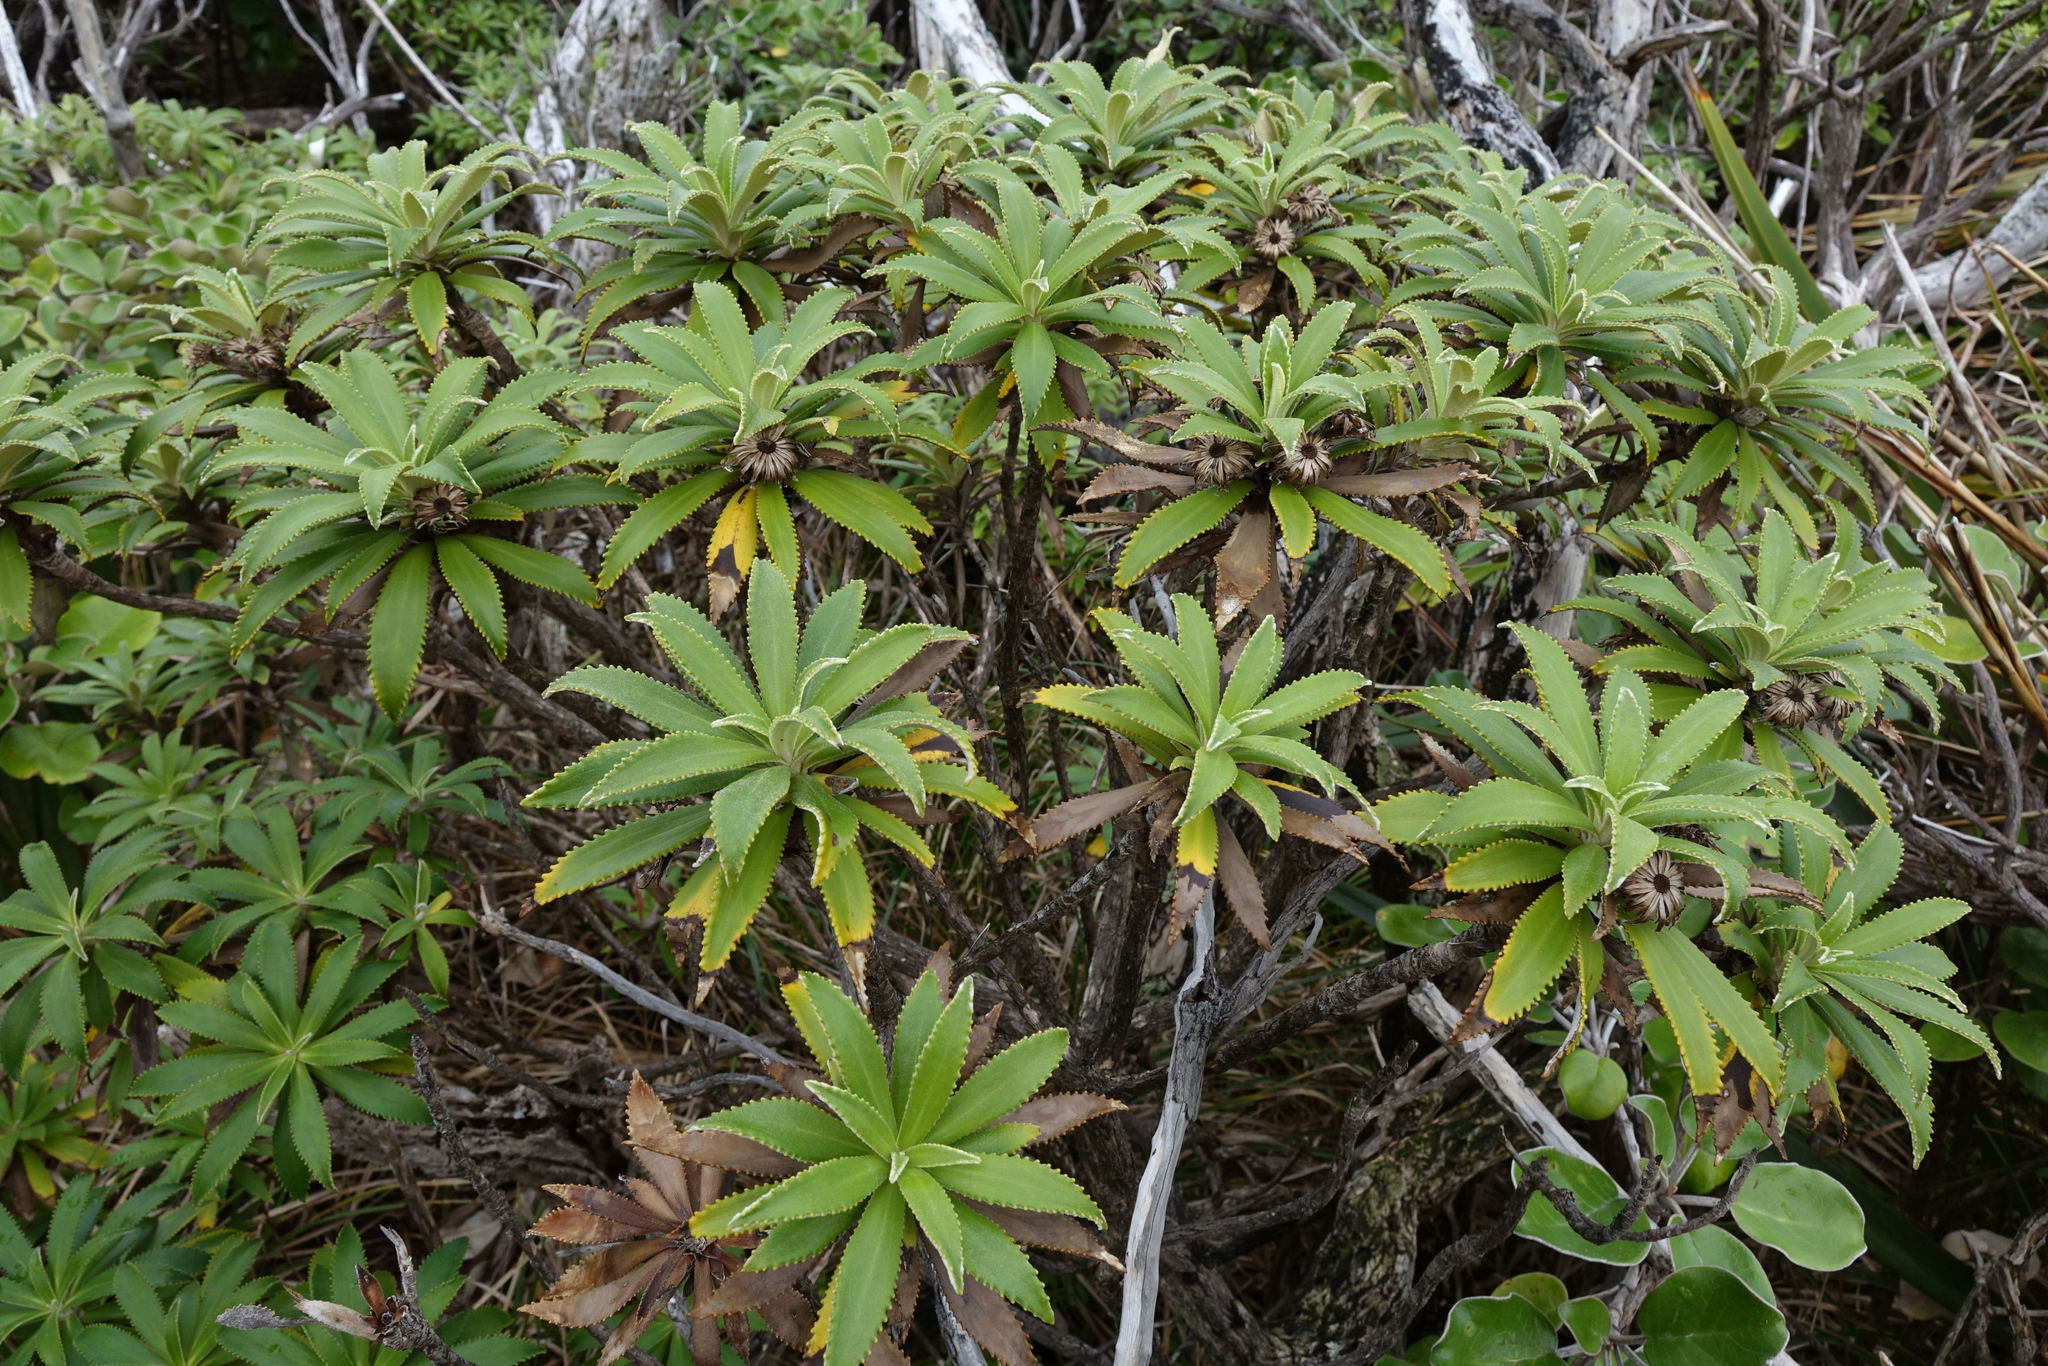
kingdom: Plantae
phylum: Tracheophyta
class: Magnoliopsida
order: Asterales
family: Asteraceae
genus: Macrolearia
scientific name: Macrolearia angustifolia
